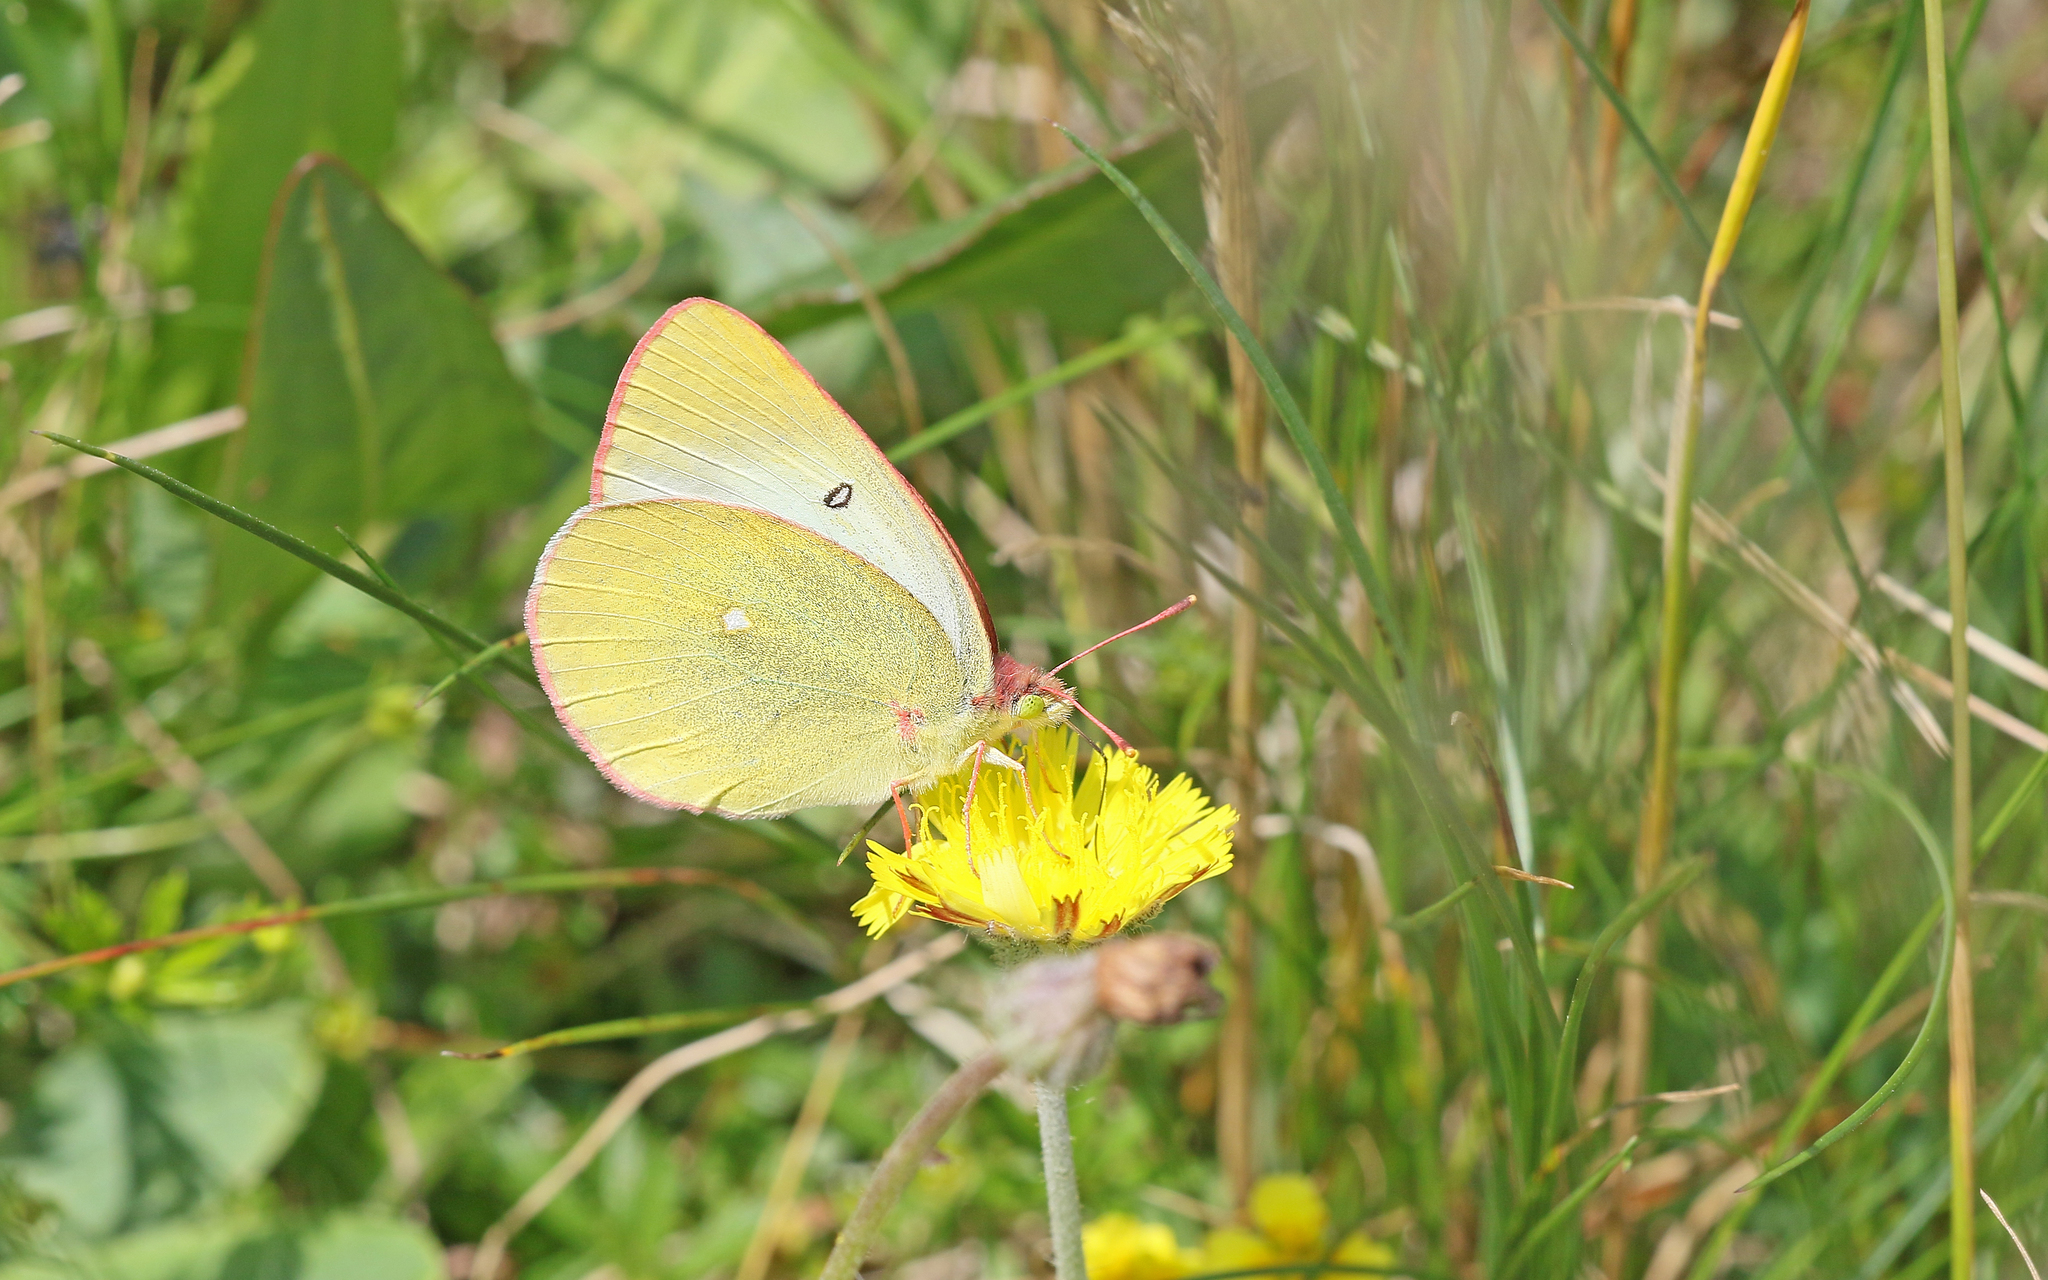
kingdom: Animalia
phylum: Arthropoda
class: Insecta
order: Lepidoptera
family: Pieridae
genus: Colias
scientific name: Colias palaeno
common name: Moorland clouded yellow
